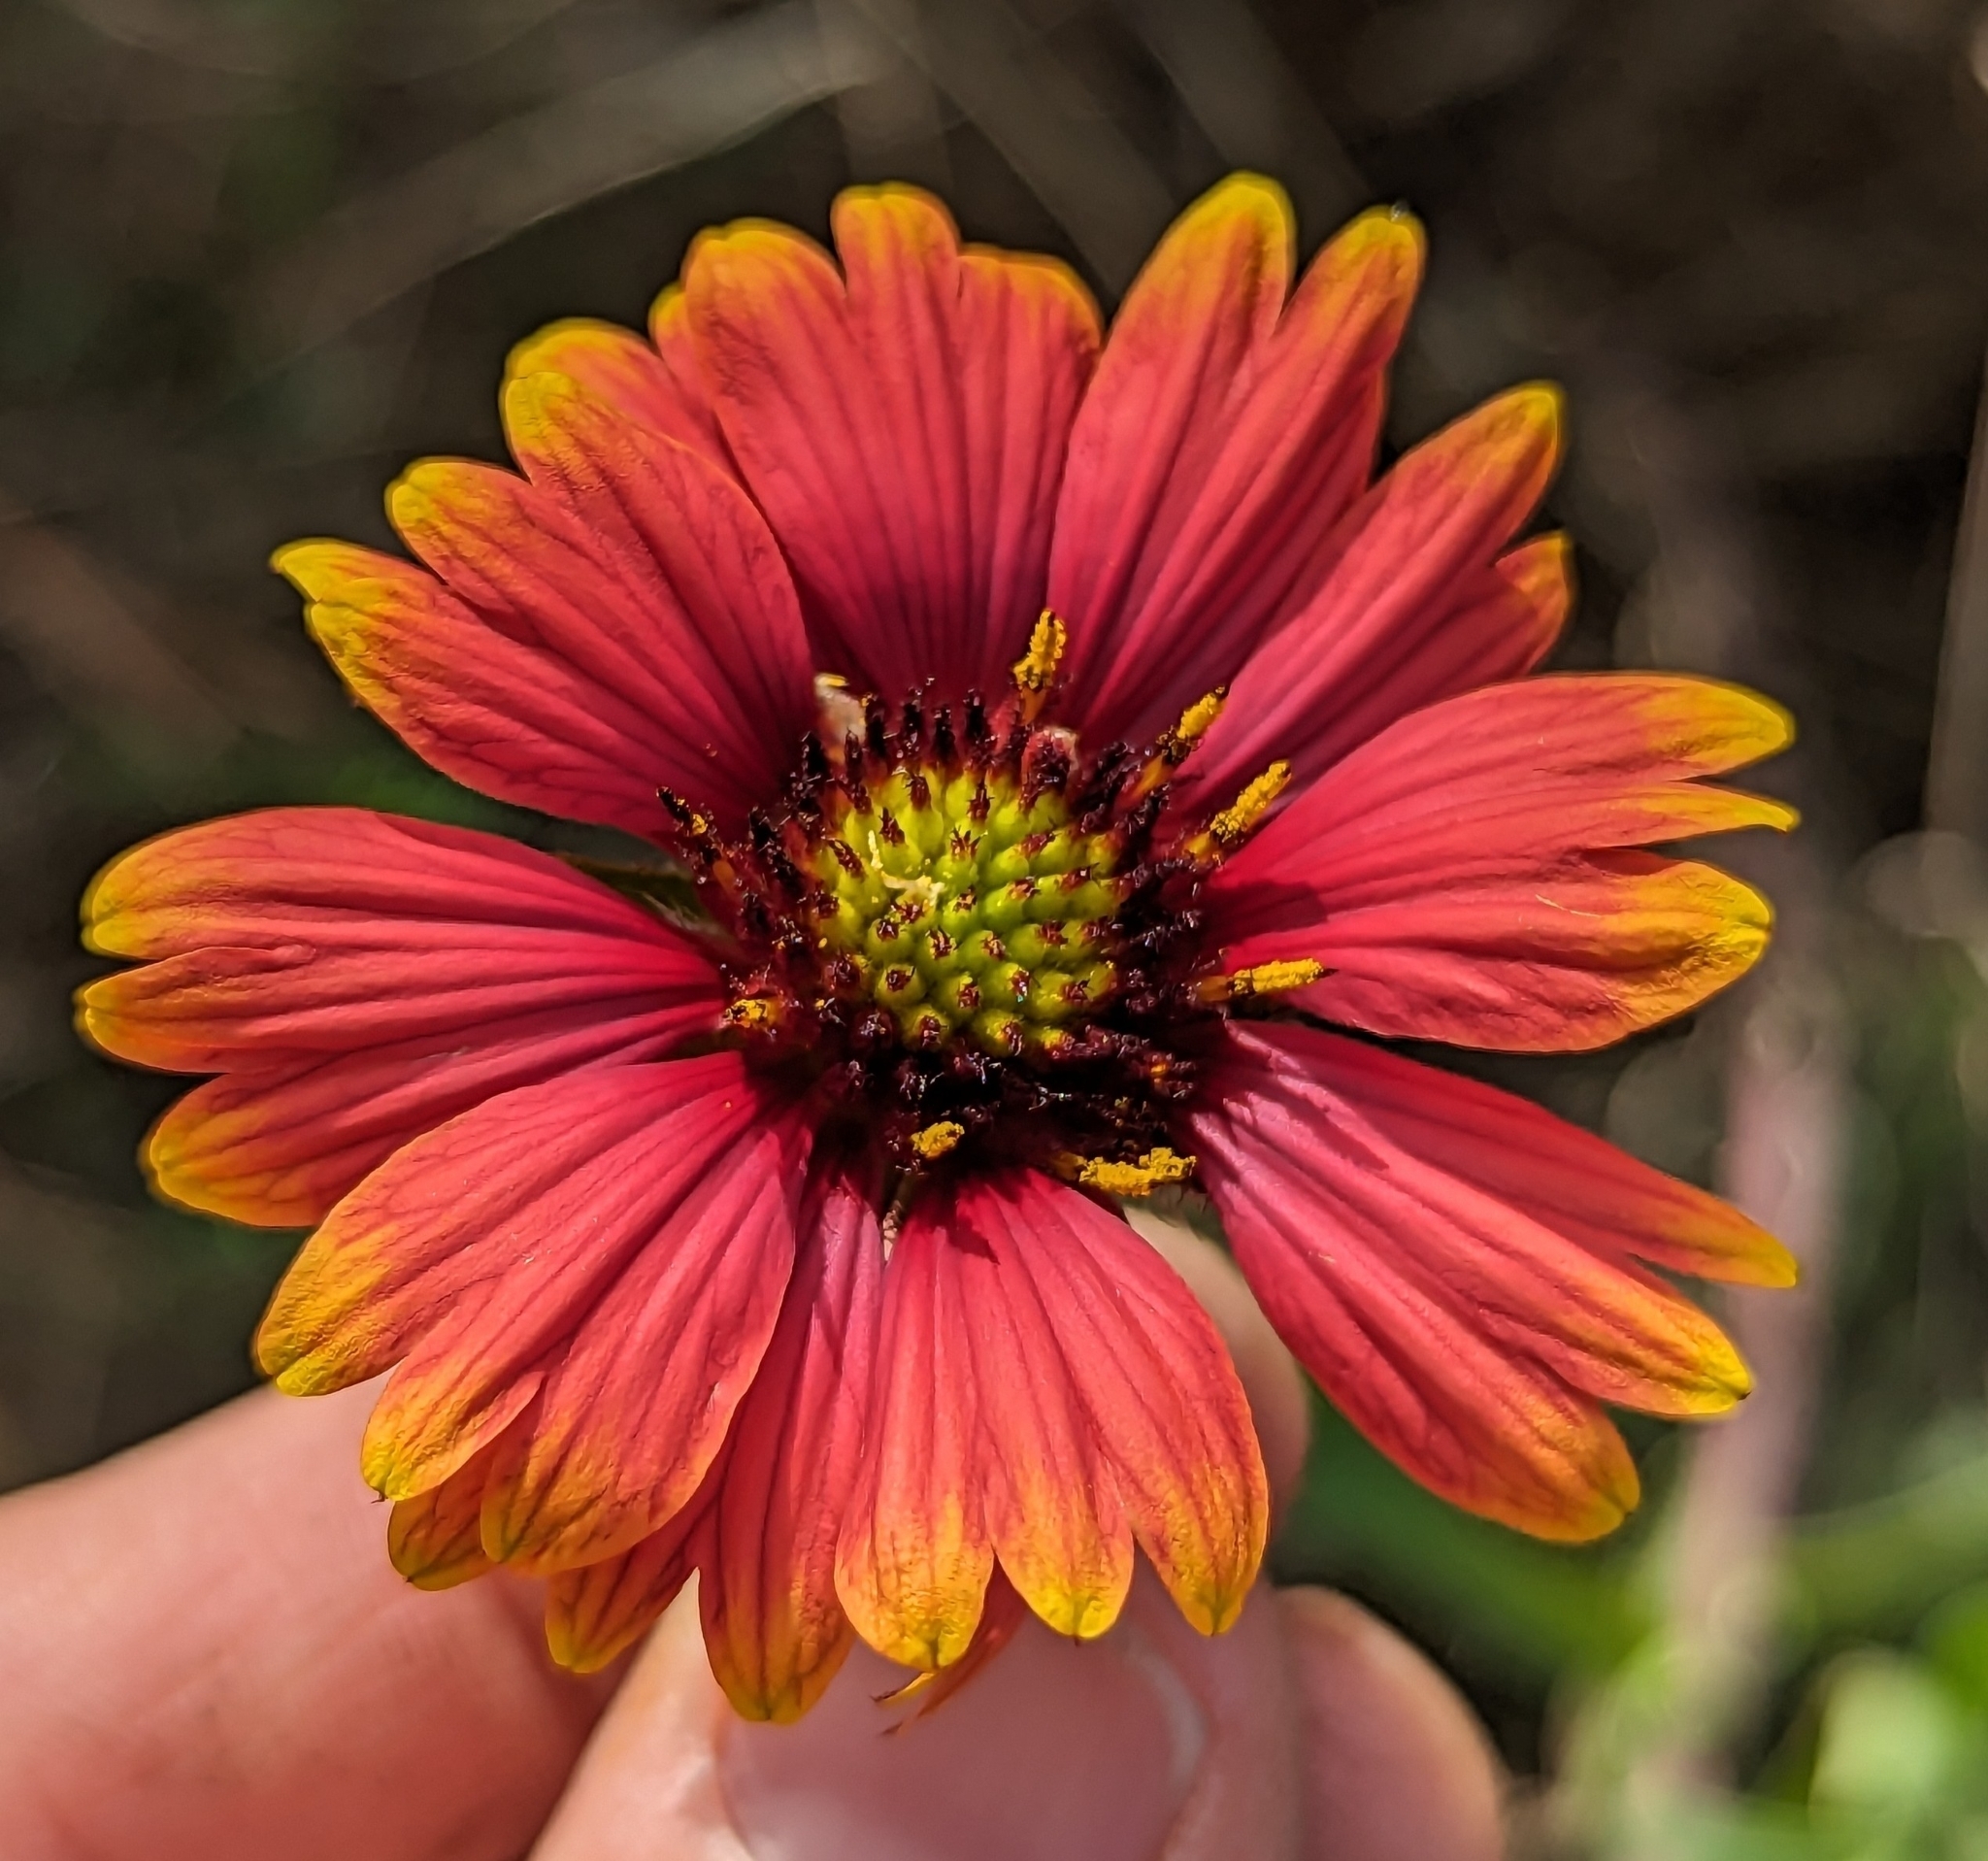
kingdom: Plantae
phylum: Tracheophyta
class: Magnoliopsida
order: Asterales
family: Asteraceae
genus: Gaillardia
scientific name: Gaillardia pulchella
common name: Firewheel
